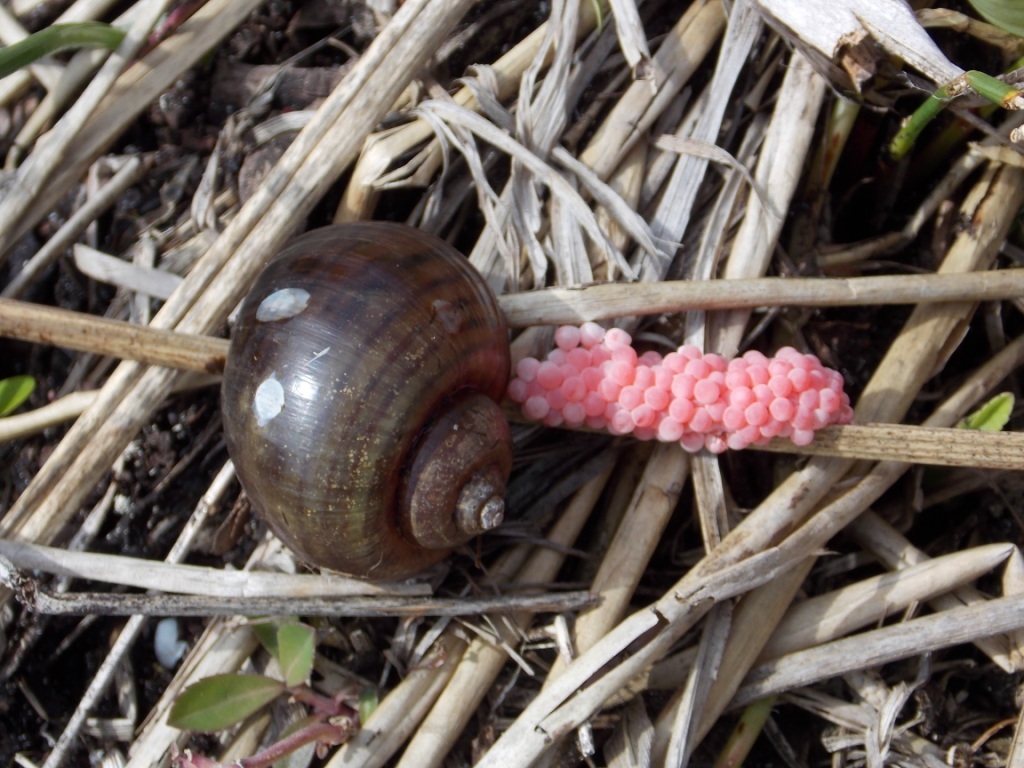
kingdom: Animalia
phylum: Mollusca
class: Gastropoda
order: Architaenioglossa
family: Ampullariidae
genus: Pomacea
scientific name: Pomacea canaliculata
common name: Channeled applesnail
